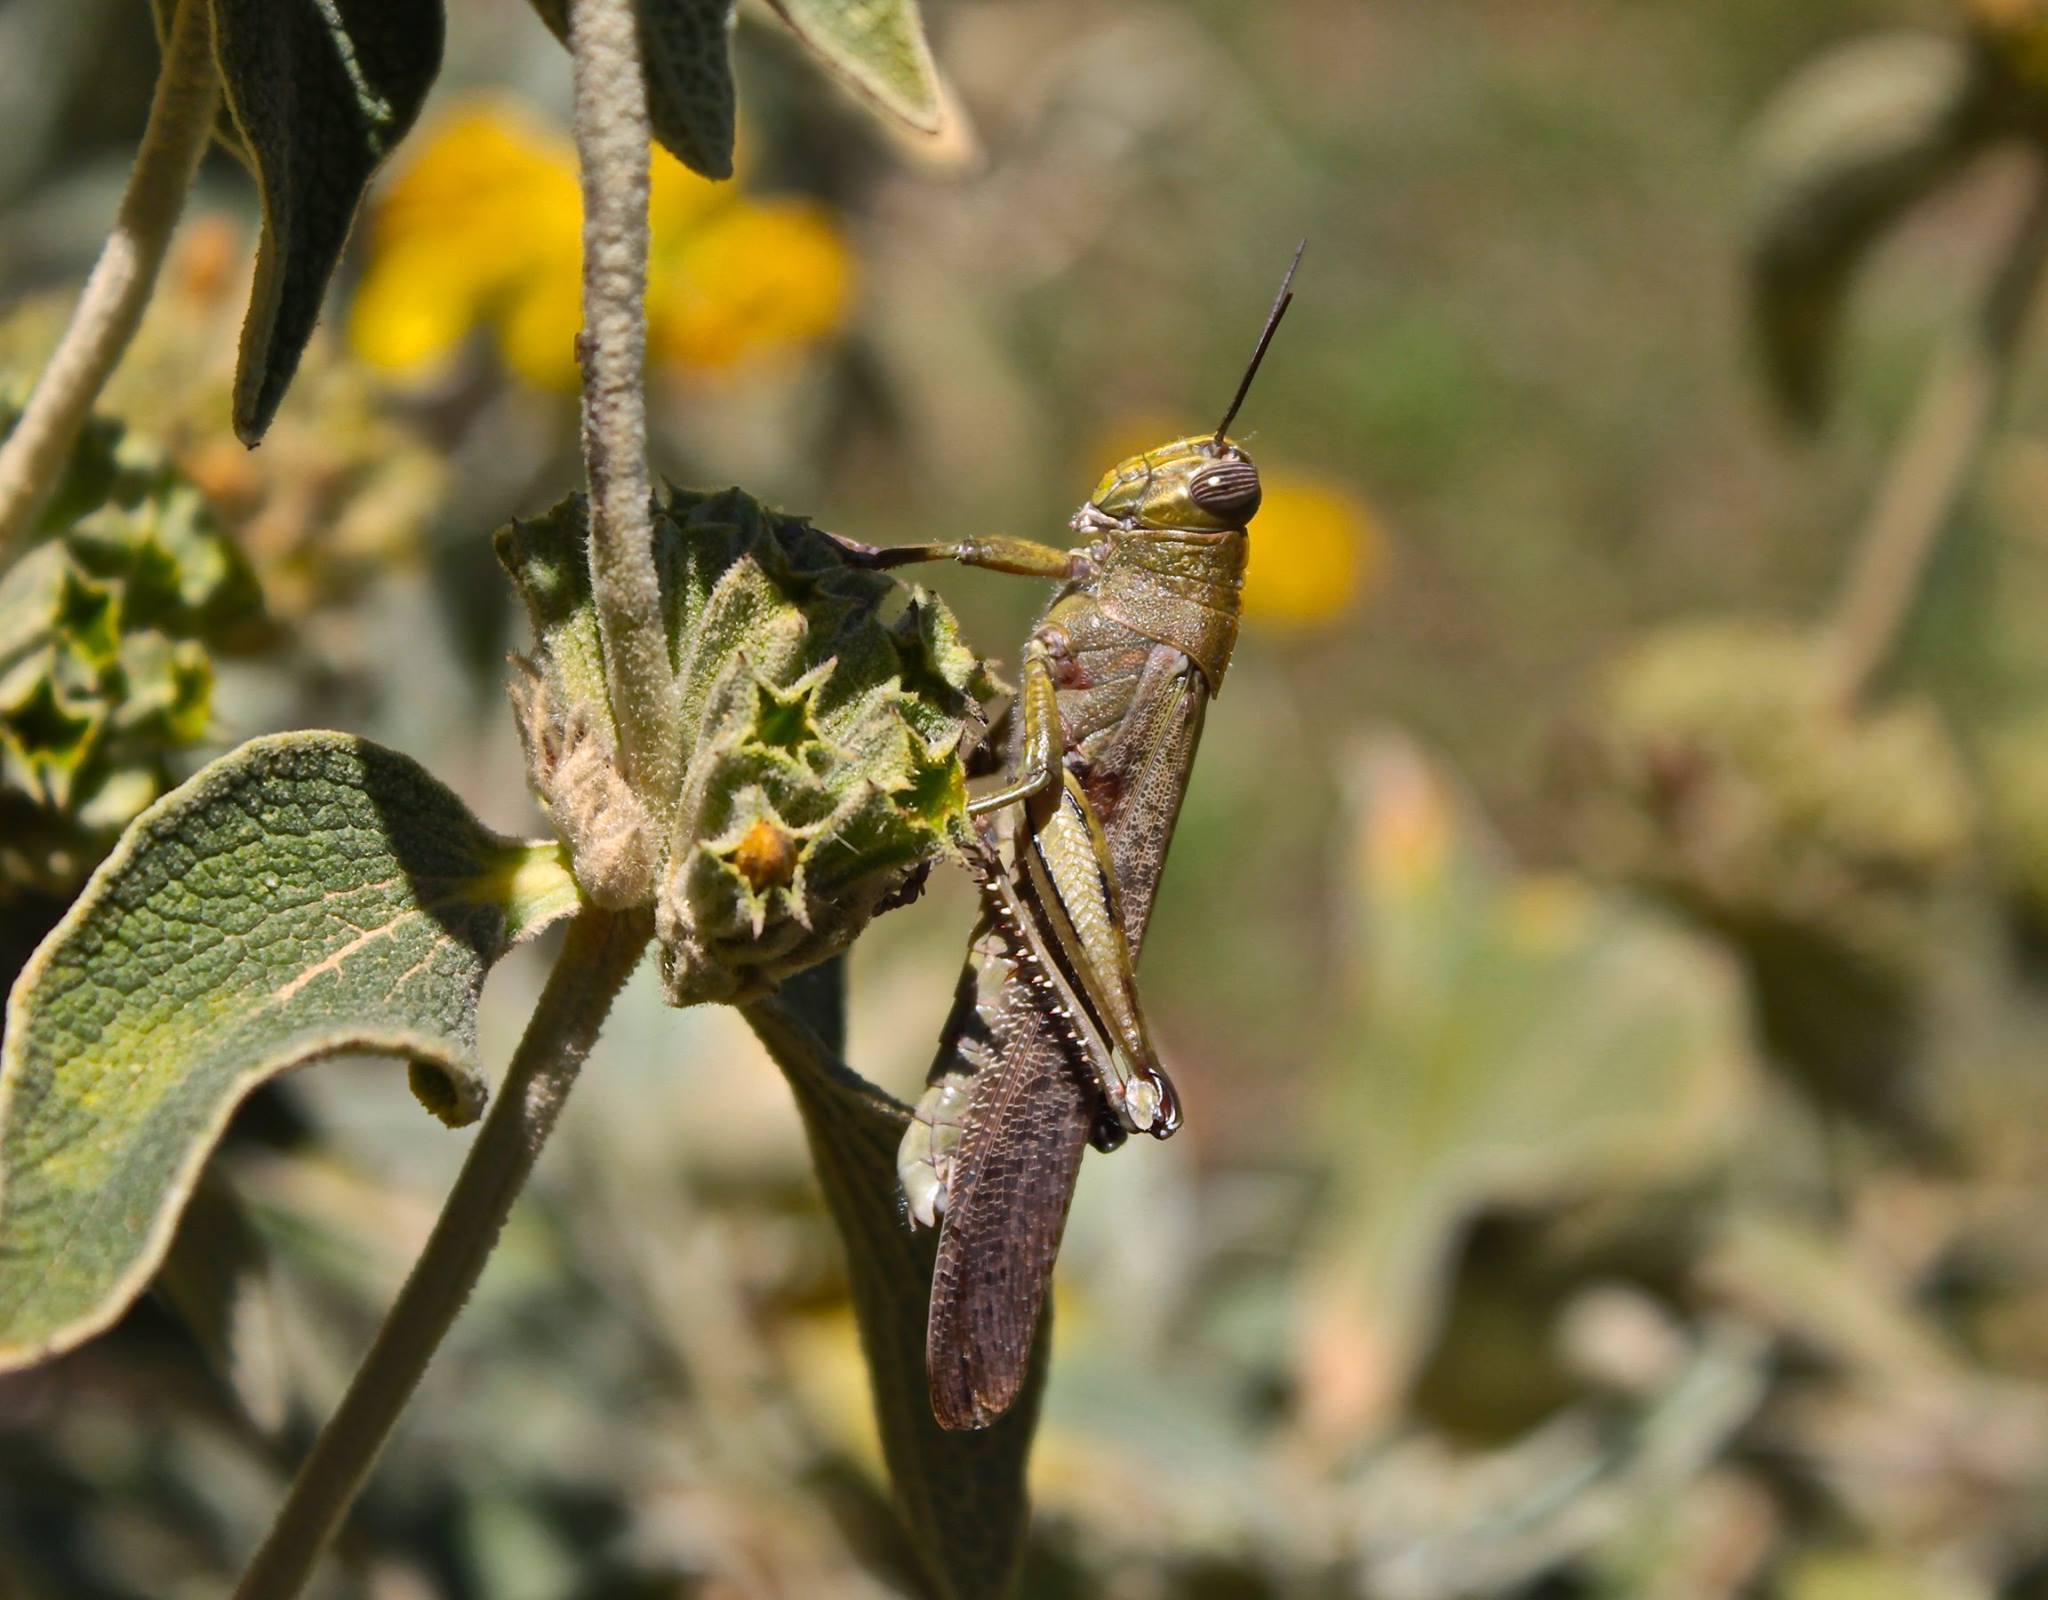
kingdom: Animalia
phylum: Arthropoda
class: Insecta
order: Orthoptera
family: Acrididae
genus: Anacridium
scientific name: Anacridium aegyptium
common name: Egyptian grasshopper
